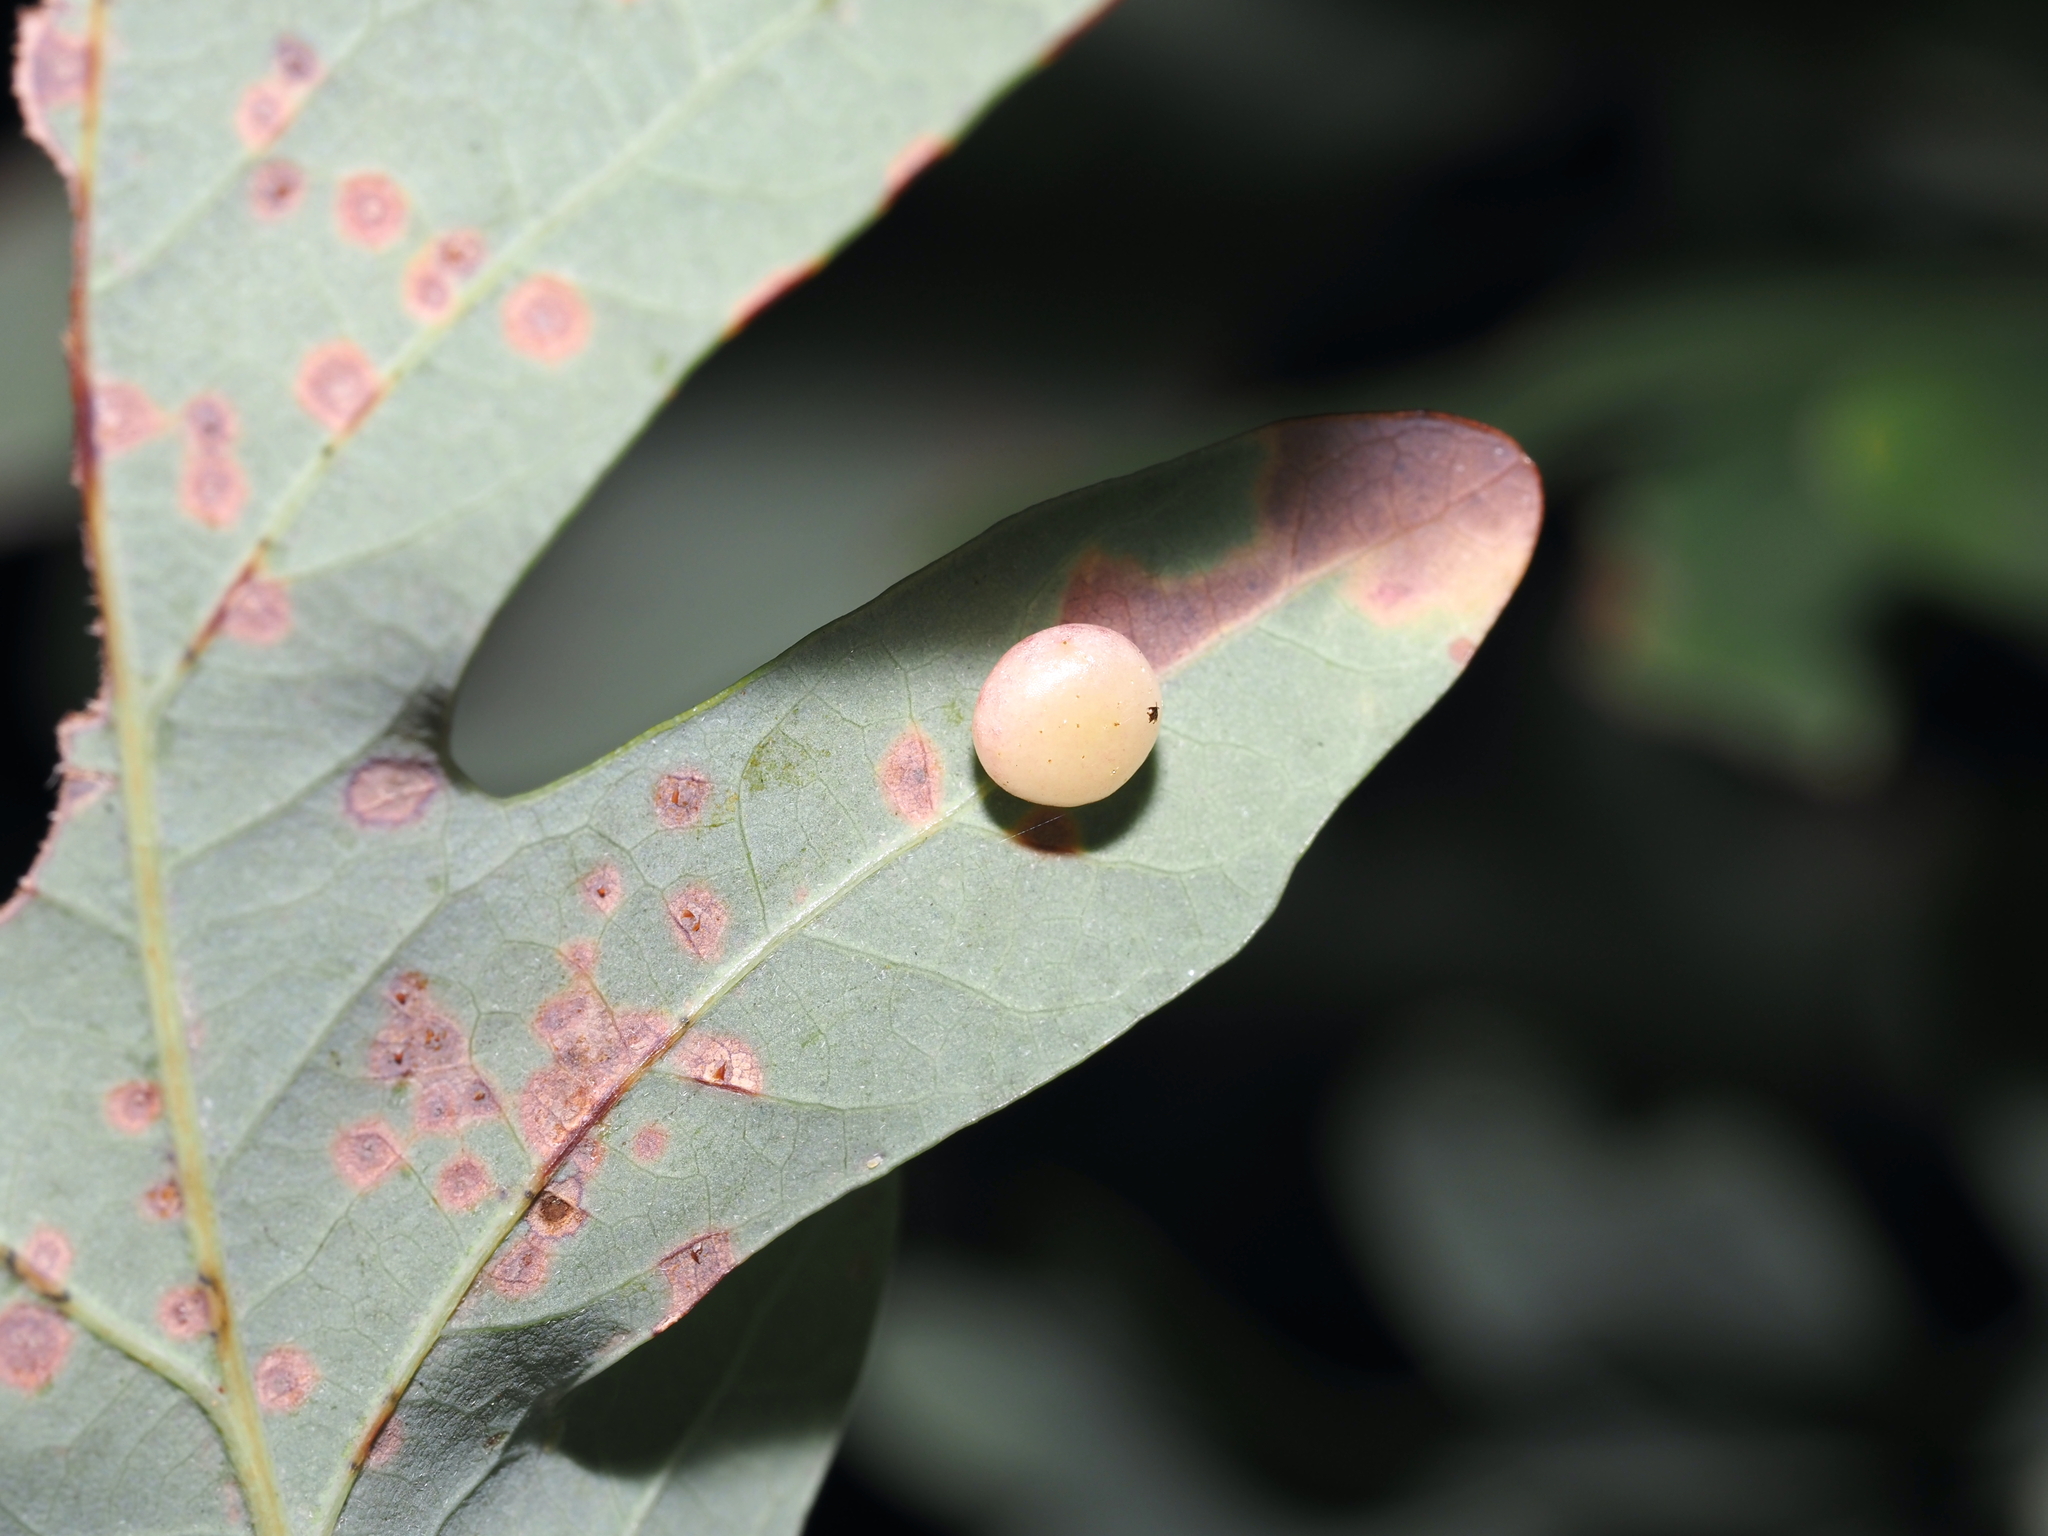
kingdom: Animalia
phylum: Arthropoda
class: Insecta
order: Hymenoptera
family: Cynipidae
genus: Phylloteras
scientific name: Phylloteras
